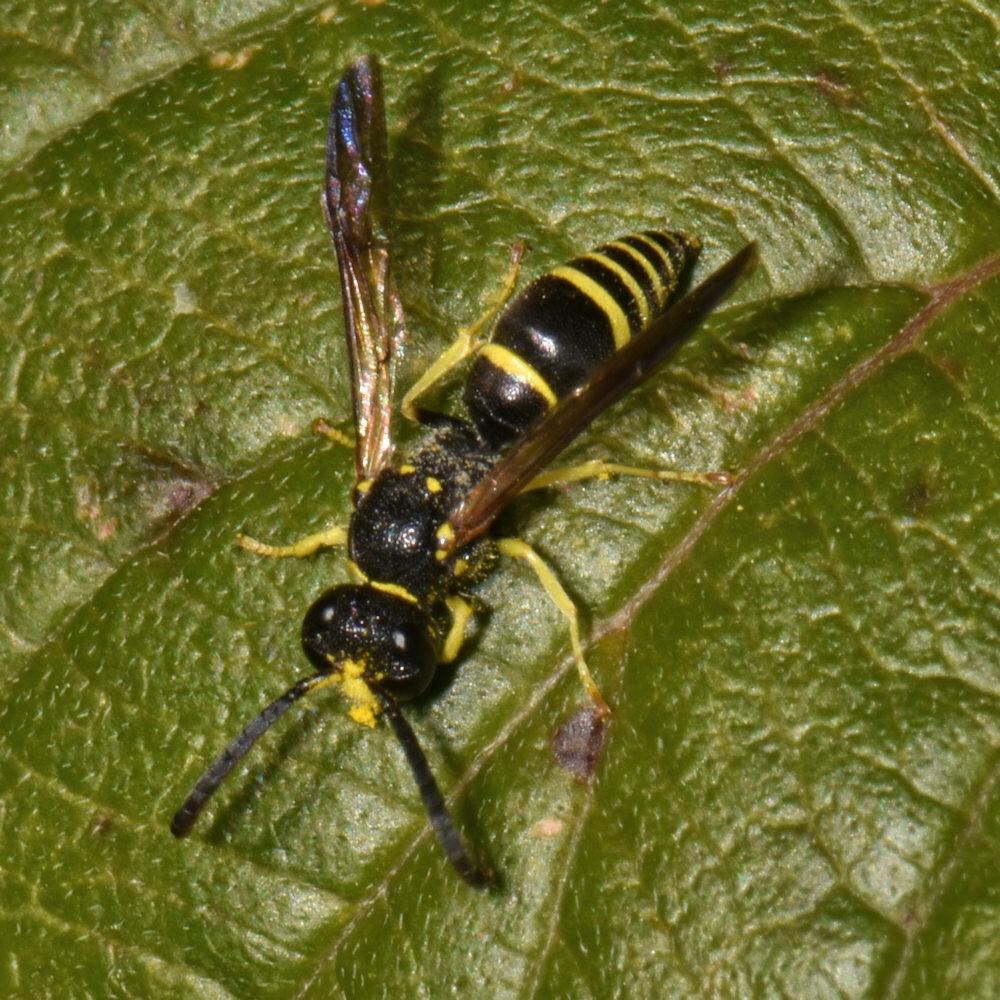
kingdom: Animalia
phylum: Arthropoda
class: Insecta
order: Hymenoptera
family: Vespidae
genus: Ancistrocerus
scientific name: Ancistrocerus adiabatus
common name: Bramble mason wasp
